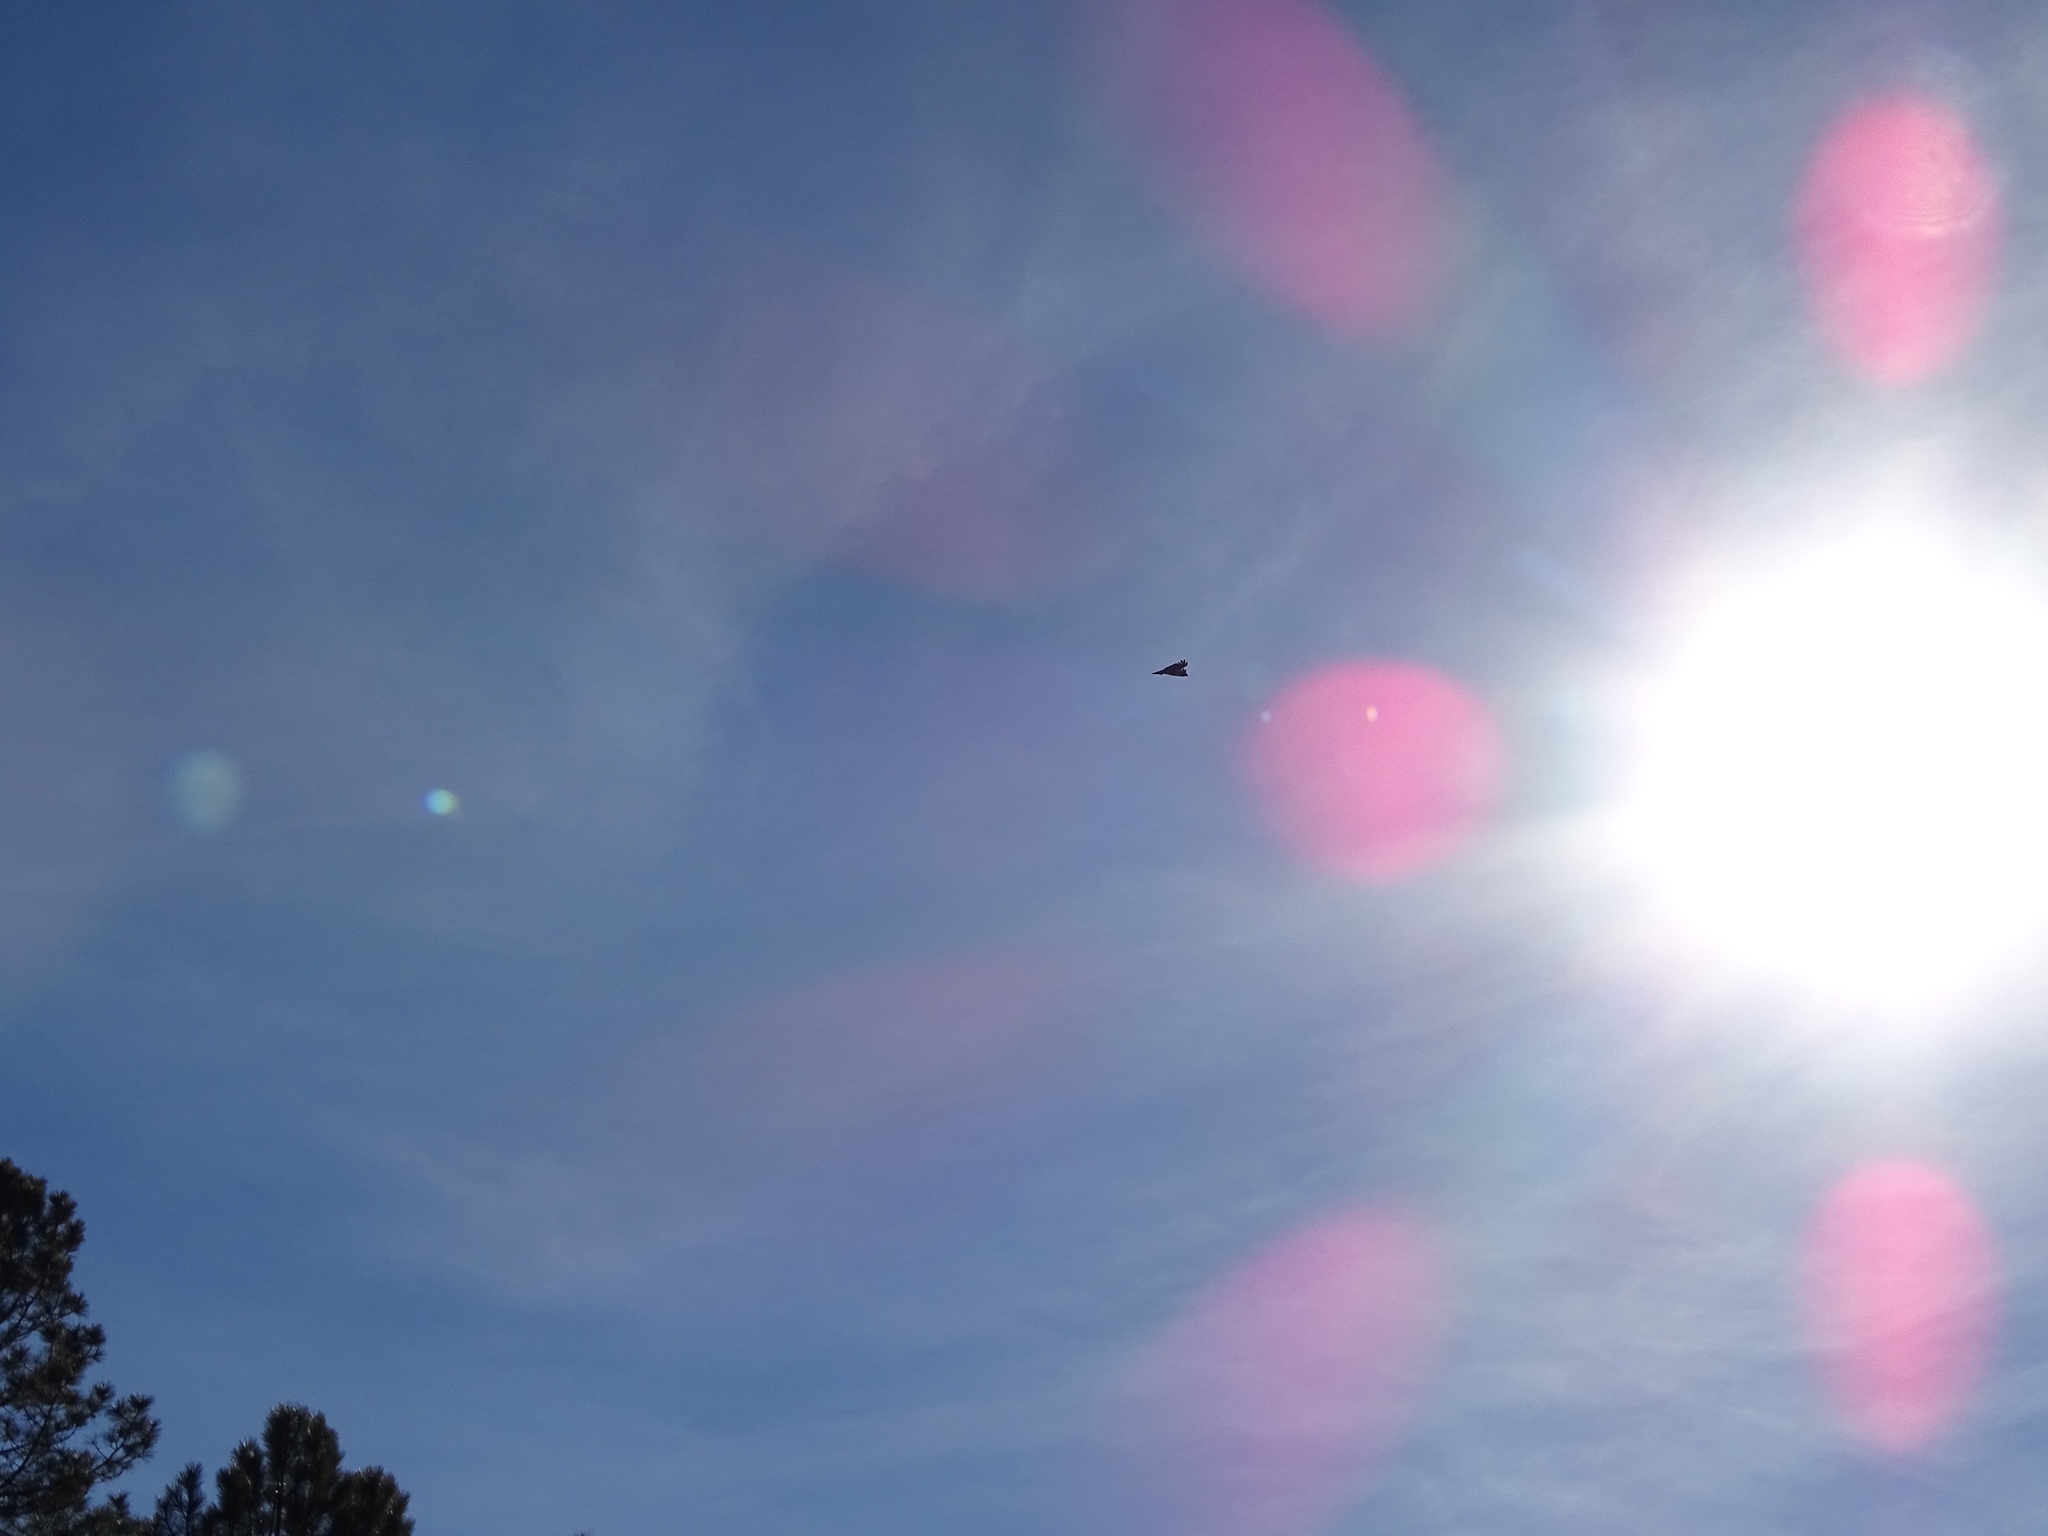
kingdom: Animalia
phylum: Chordata
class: Aves
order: Accipitriformes
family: Accipitridae
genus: Buteo
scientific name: Buteo jamaicensis
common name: Red-tailed hawk
